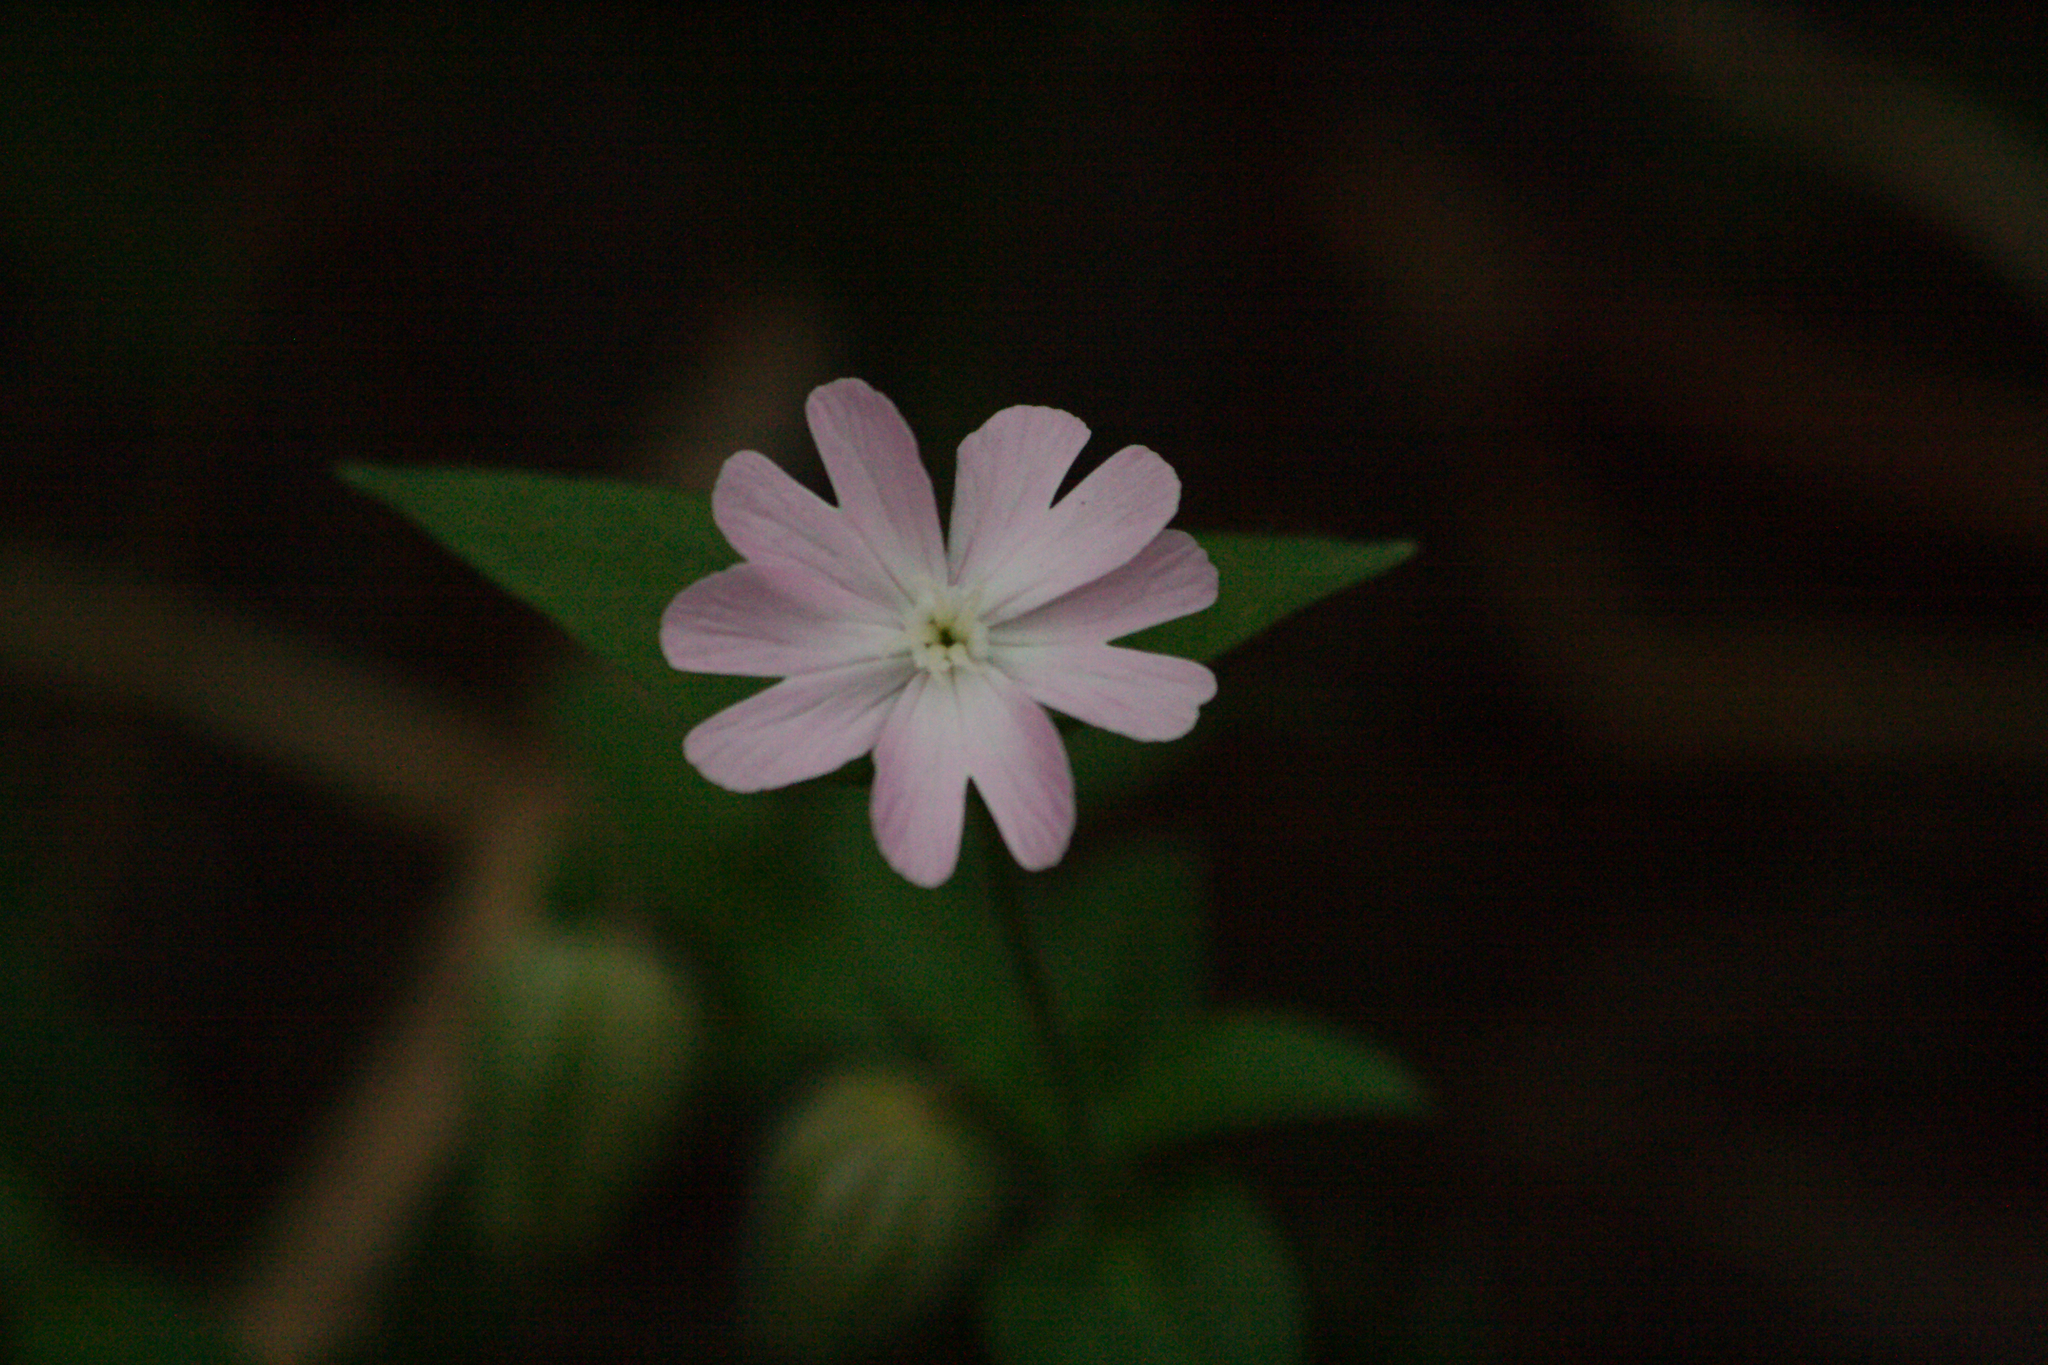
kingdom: Plantae
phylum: Tracheophyta
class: Magnoliopsida
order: Caryophyllales
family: Caryophyllaceae
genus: Silene
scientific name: Silene dioica
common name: Red campion
